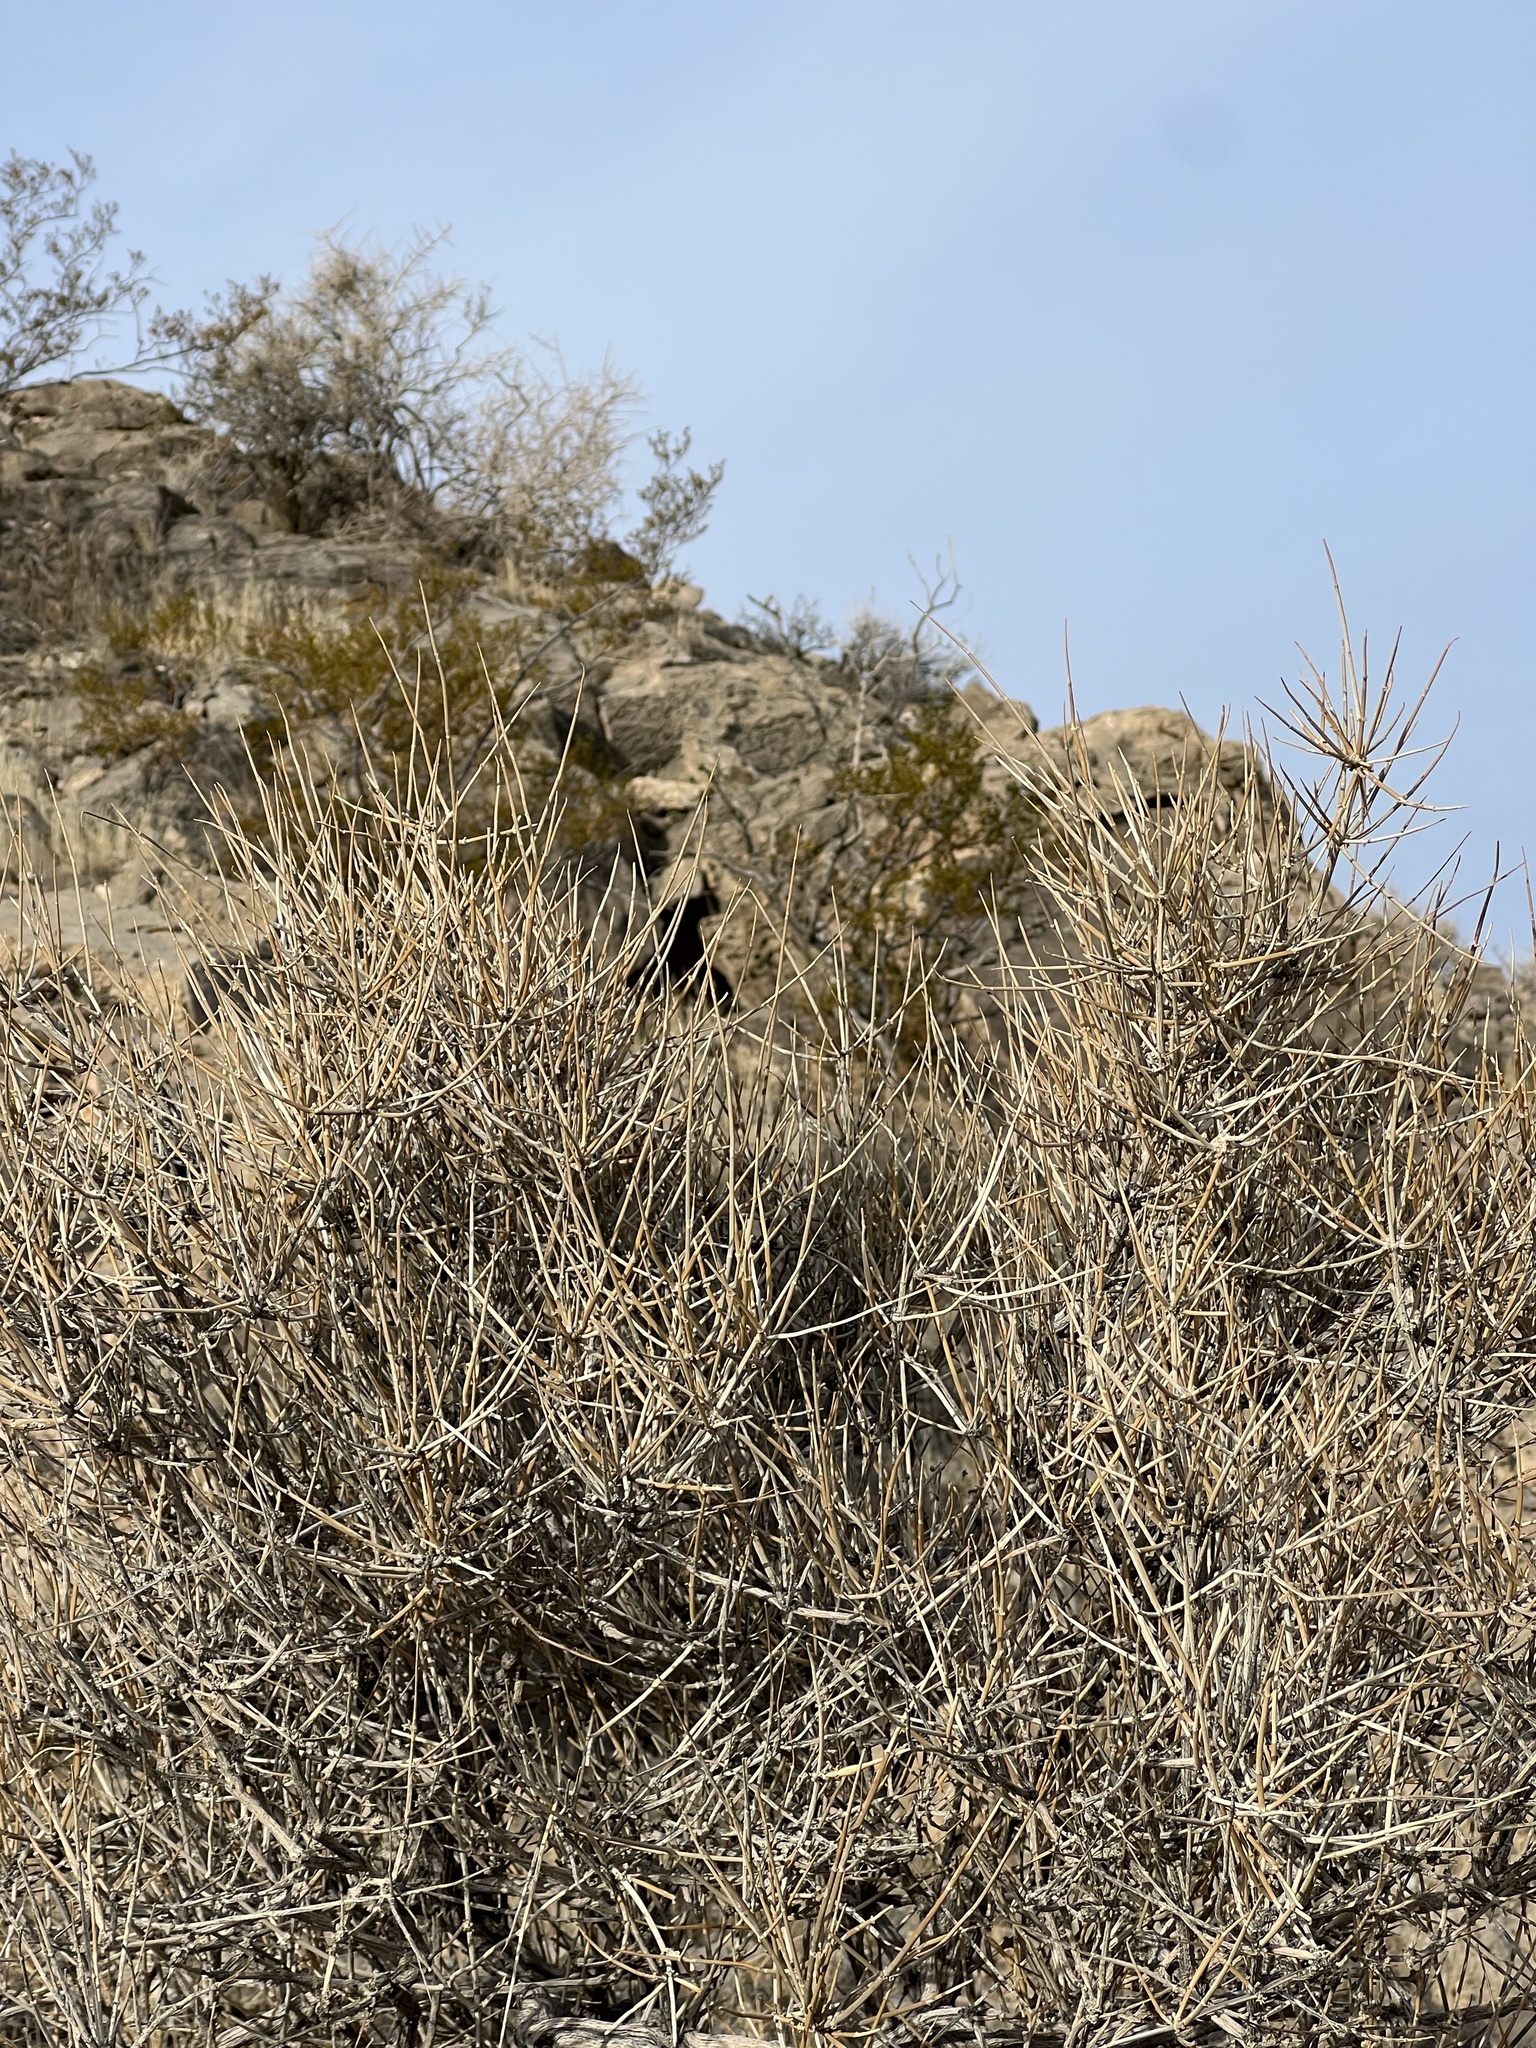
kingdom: Plantae
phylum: Tracheophyta
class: Gnetopsida
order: Ephedrales
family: Ephedraceae
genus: Ephedra
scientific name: Ephedra nevadensis
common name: Gray ephedra
